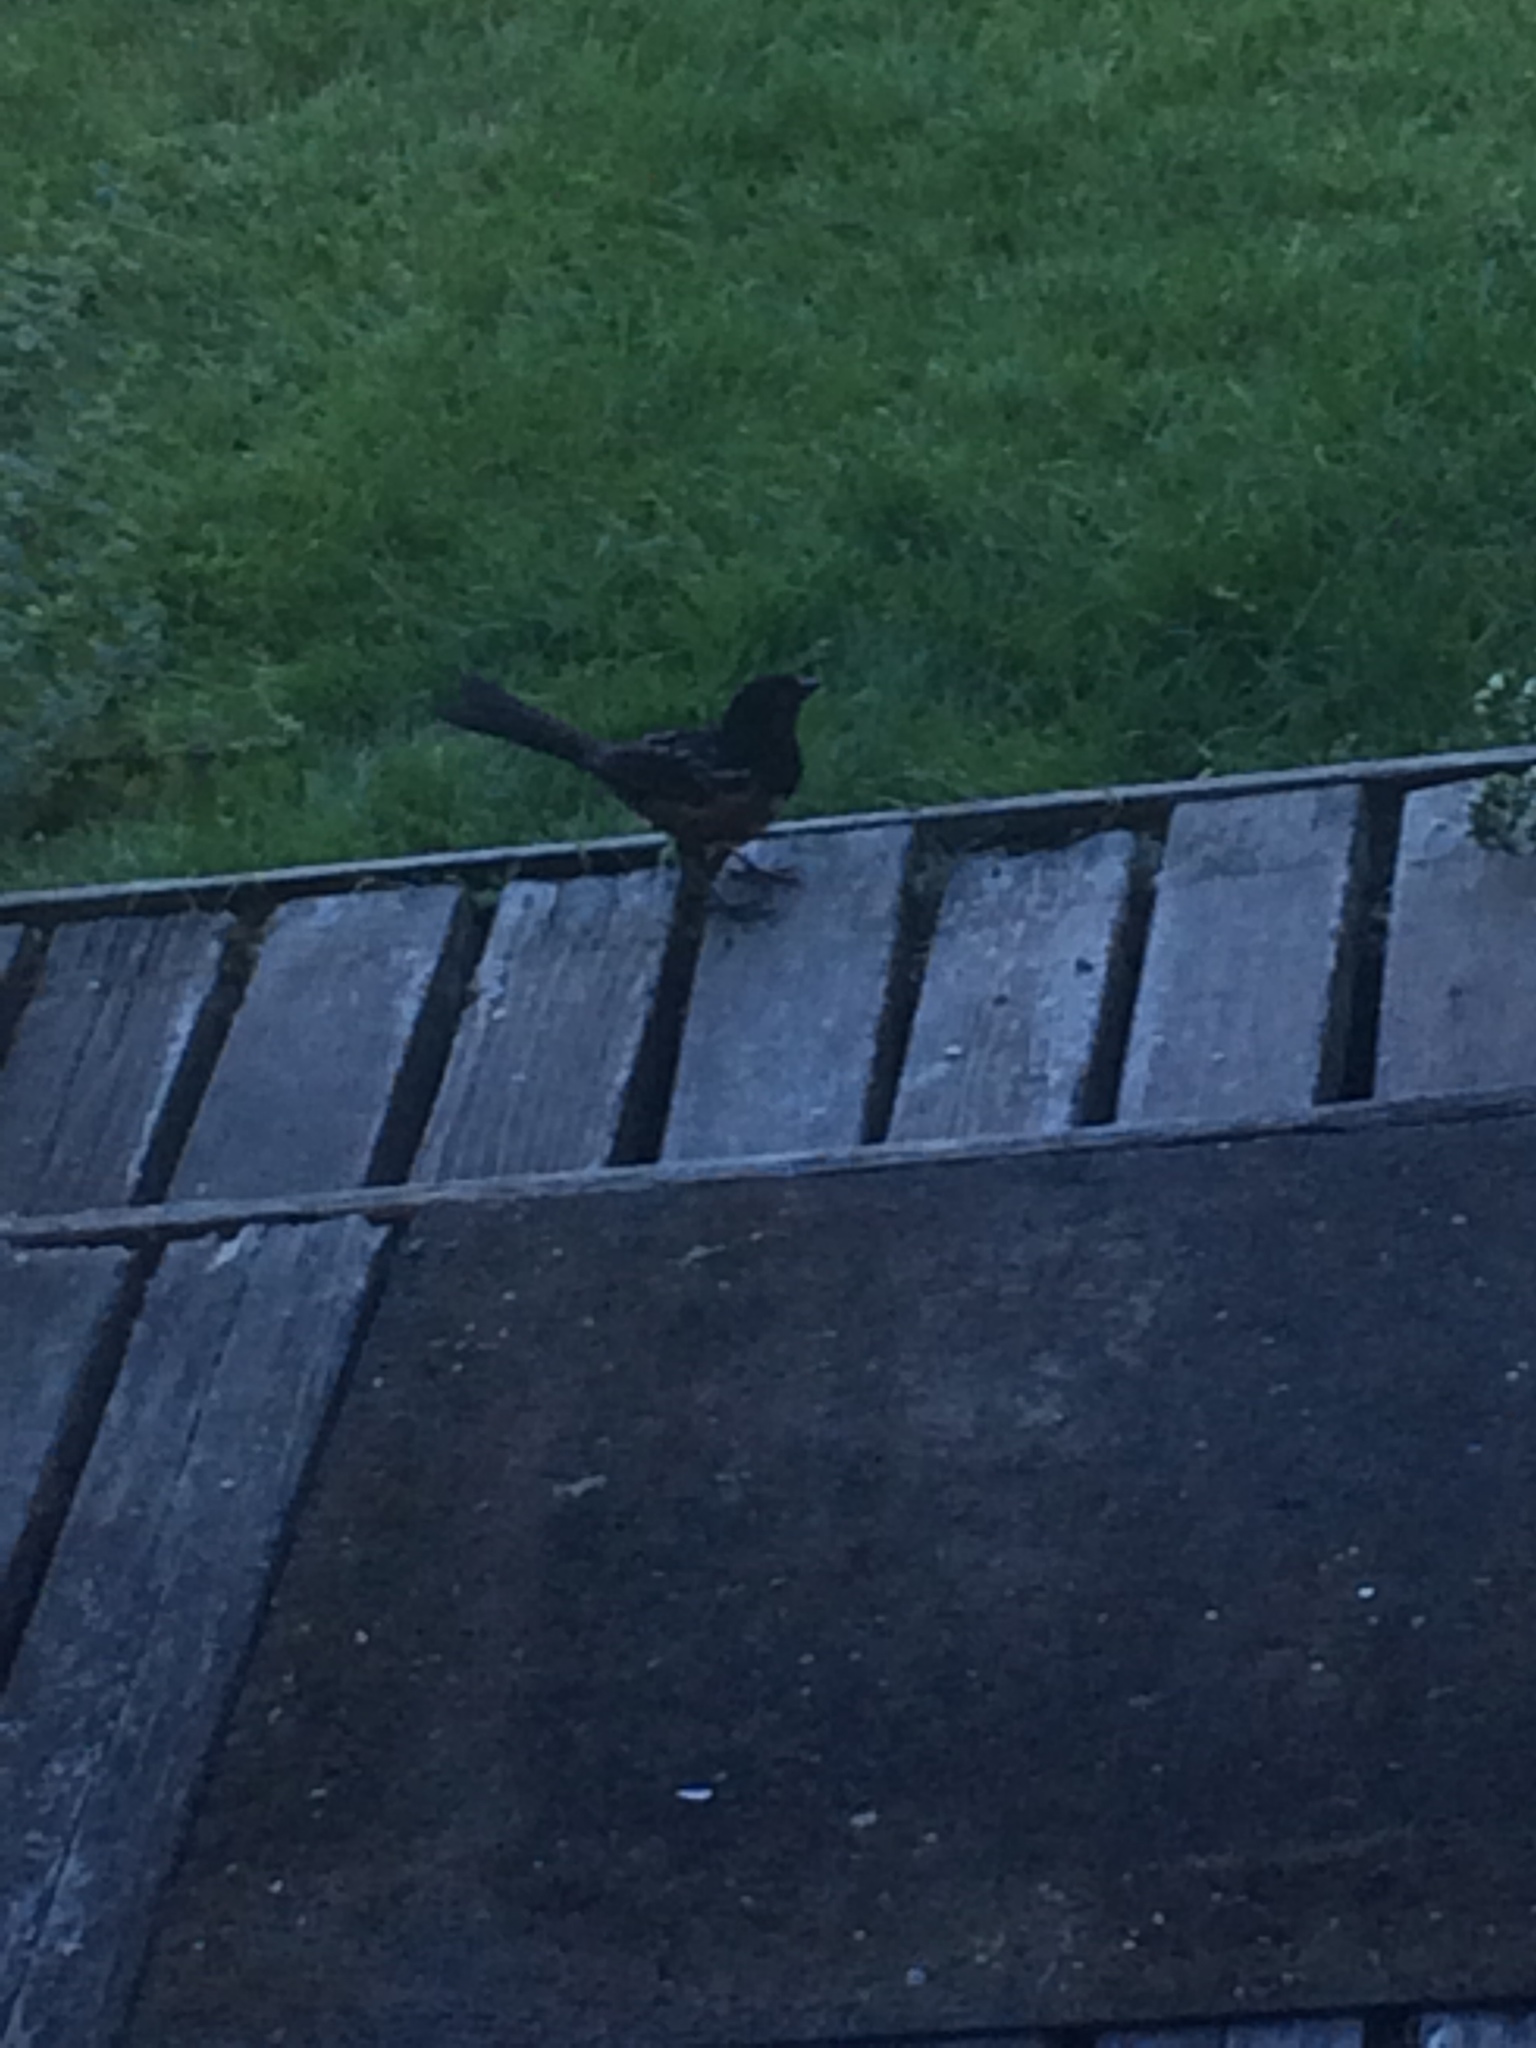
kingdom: Animalia
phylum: Chordata
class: Aves
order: Passeriformes
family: Passerellidae
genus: Pipilo
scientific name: Pipilo maculatus
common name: Spotted towhee
